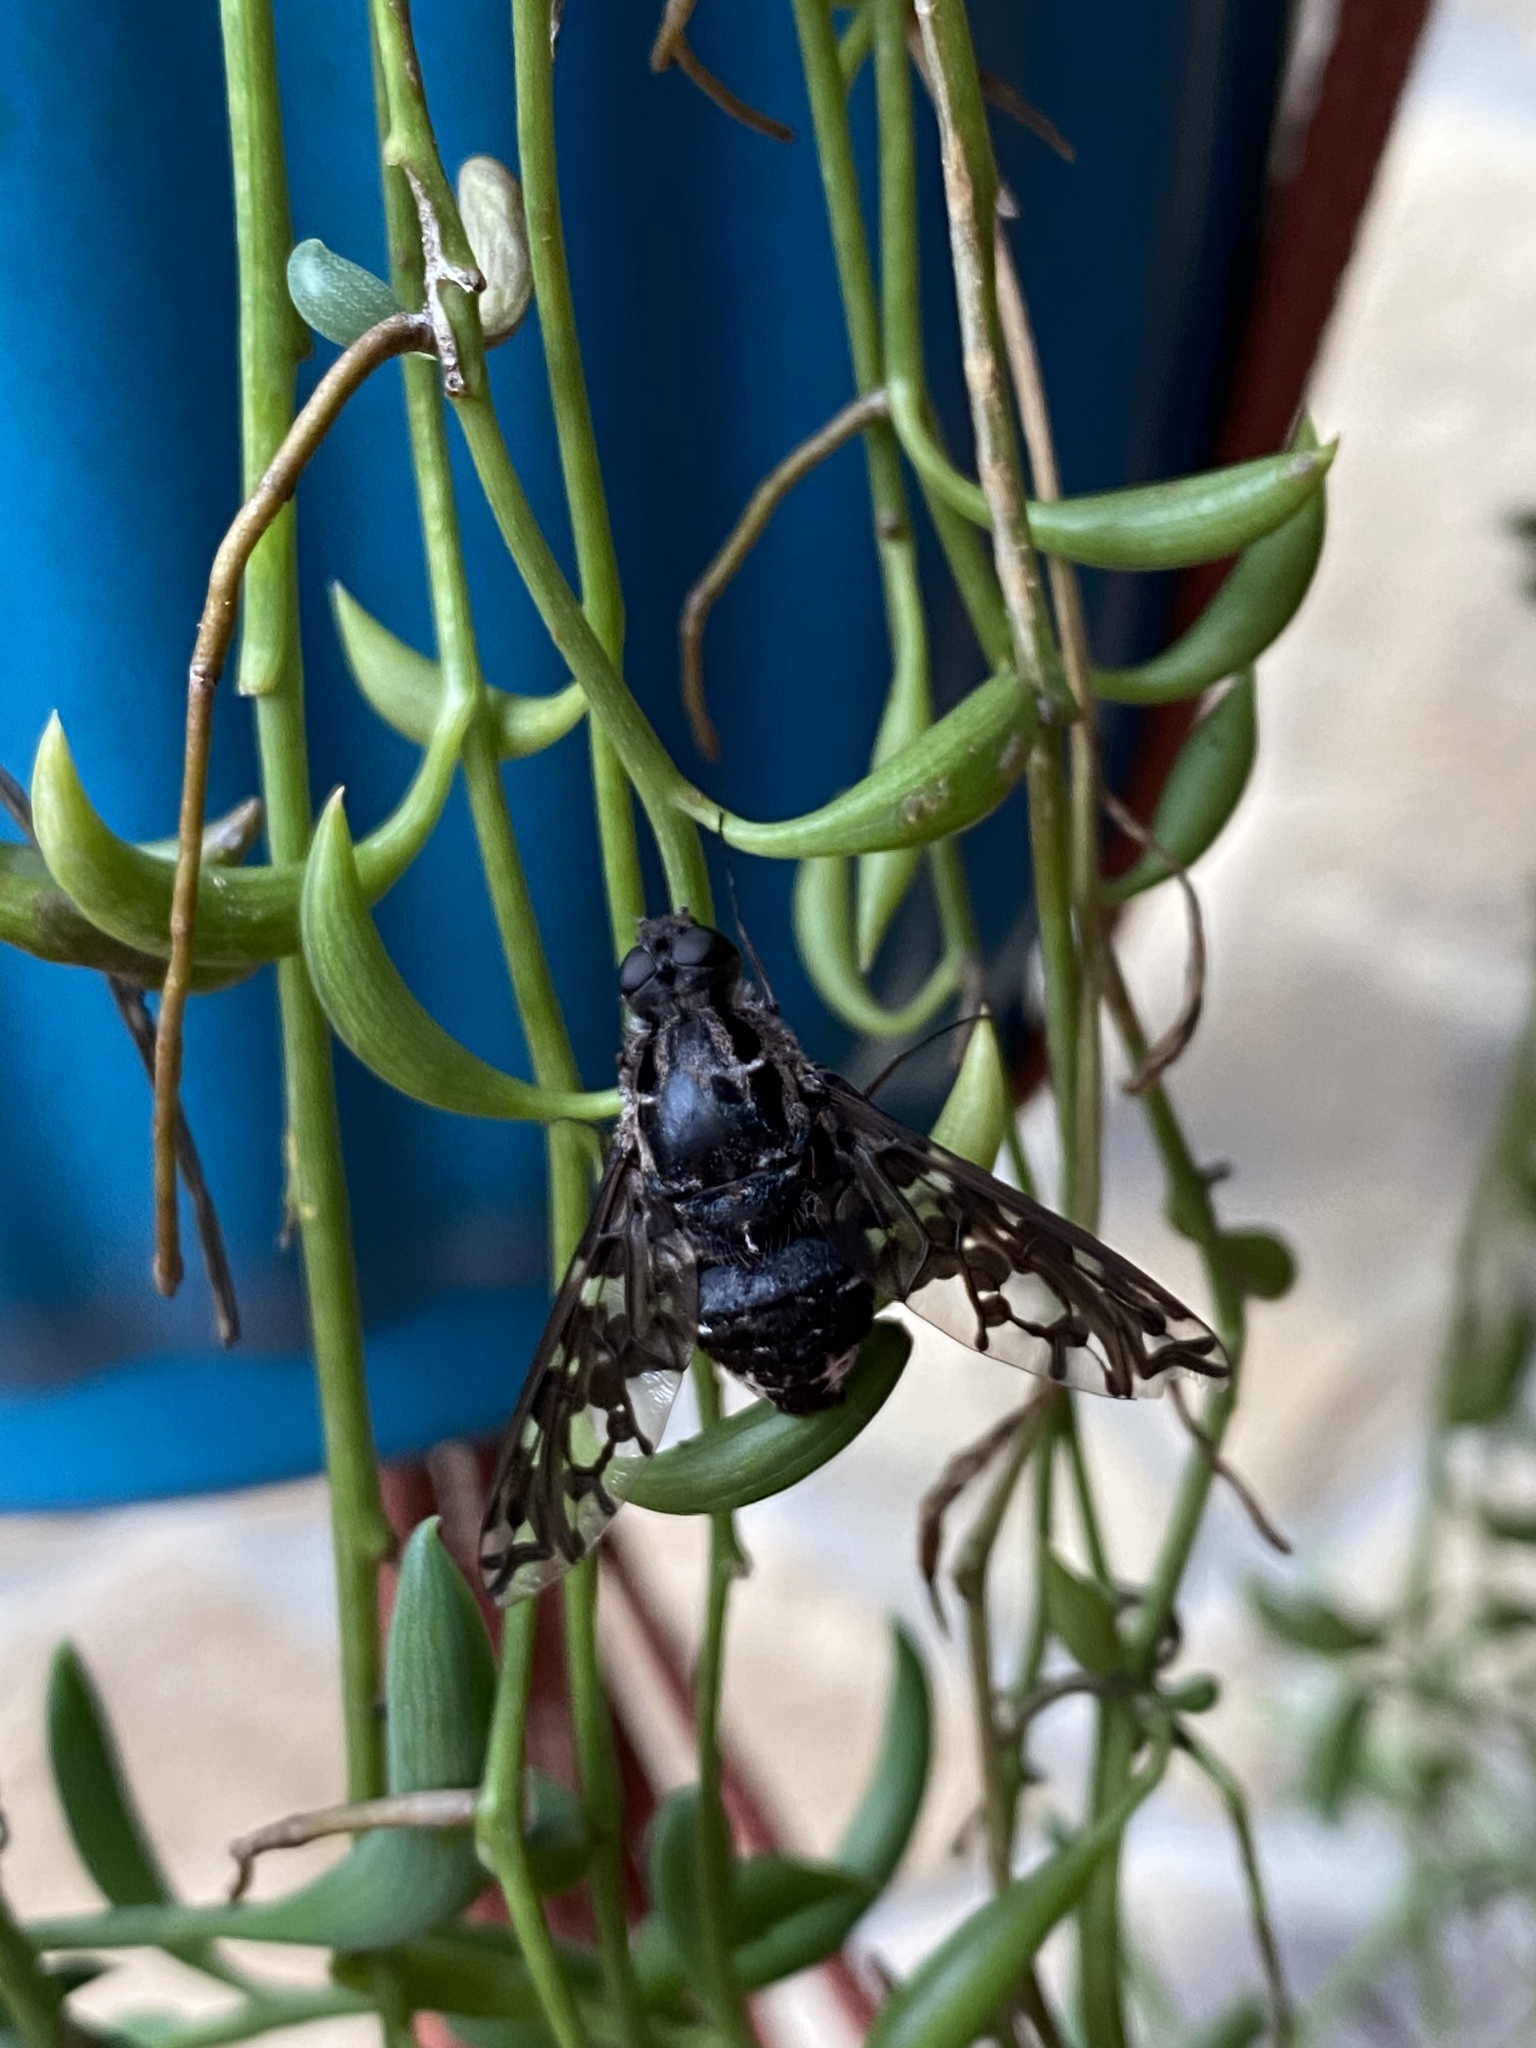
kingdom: Animalia
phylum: Arthropoda
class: Insecta
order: Diptera
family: Bombyliidae
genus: Xenox
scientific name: Xenox tigrinus
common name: Tiger bee fly
